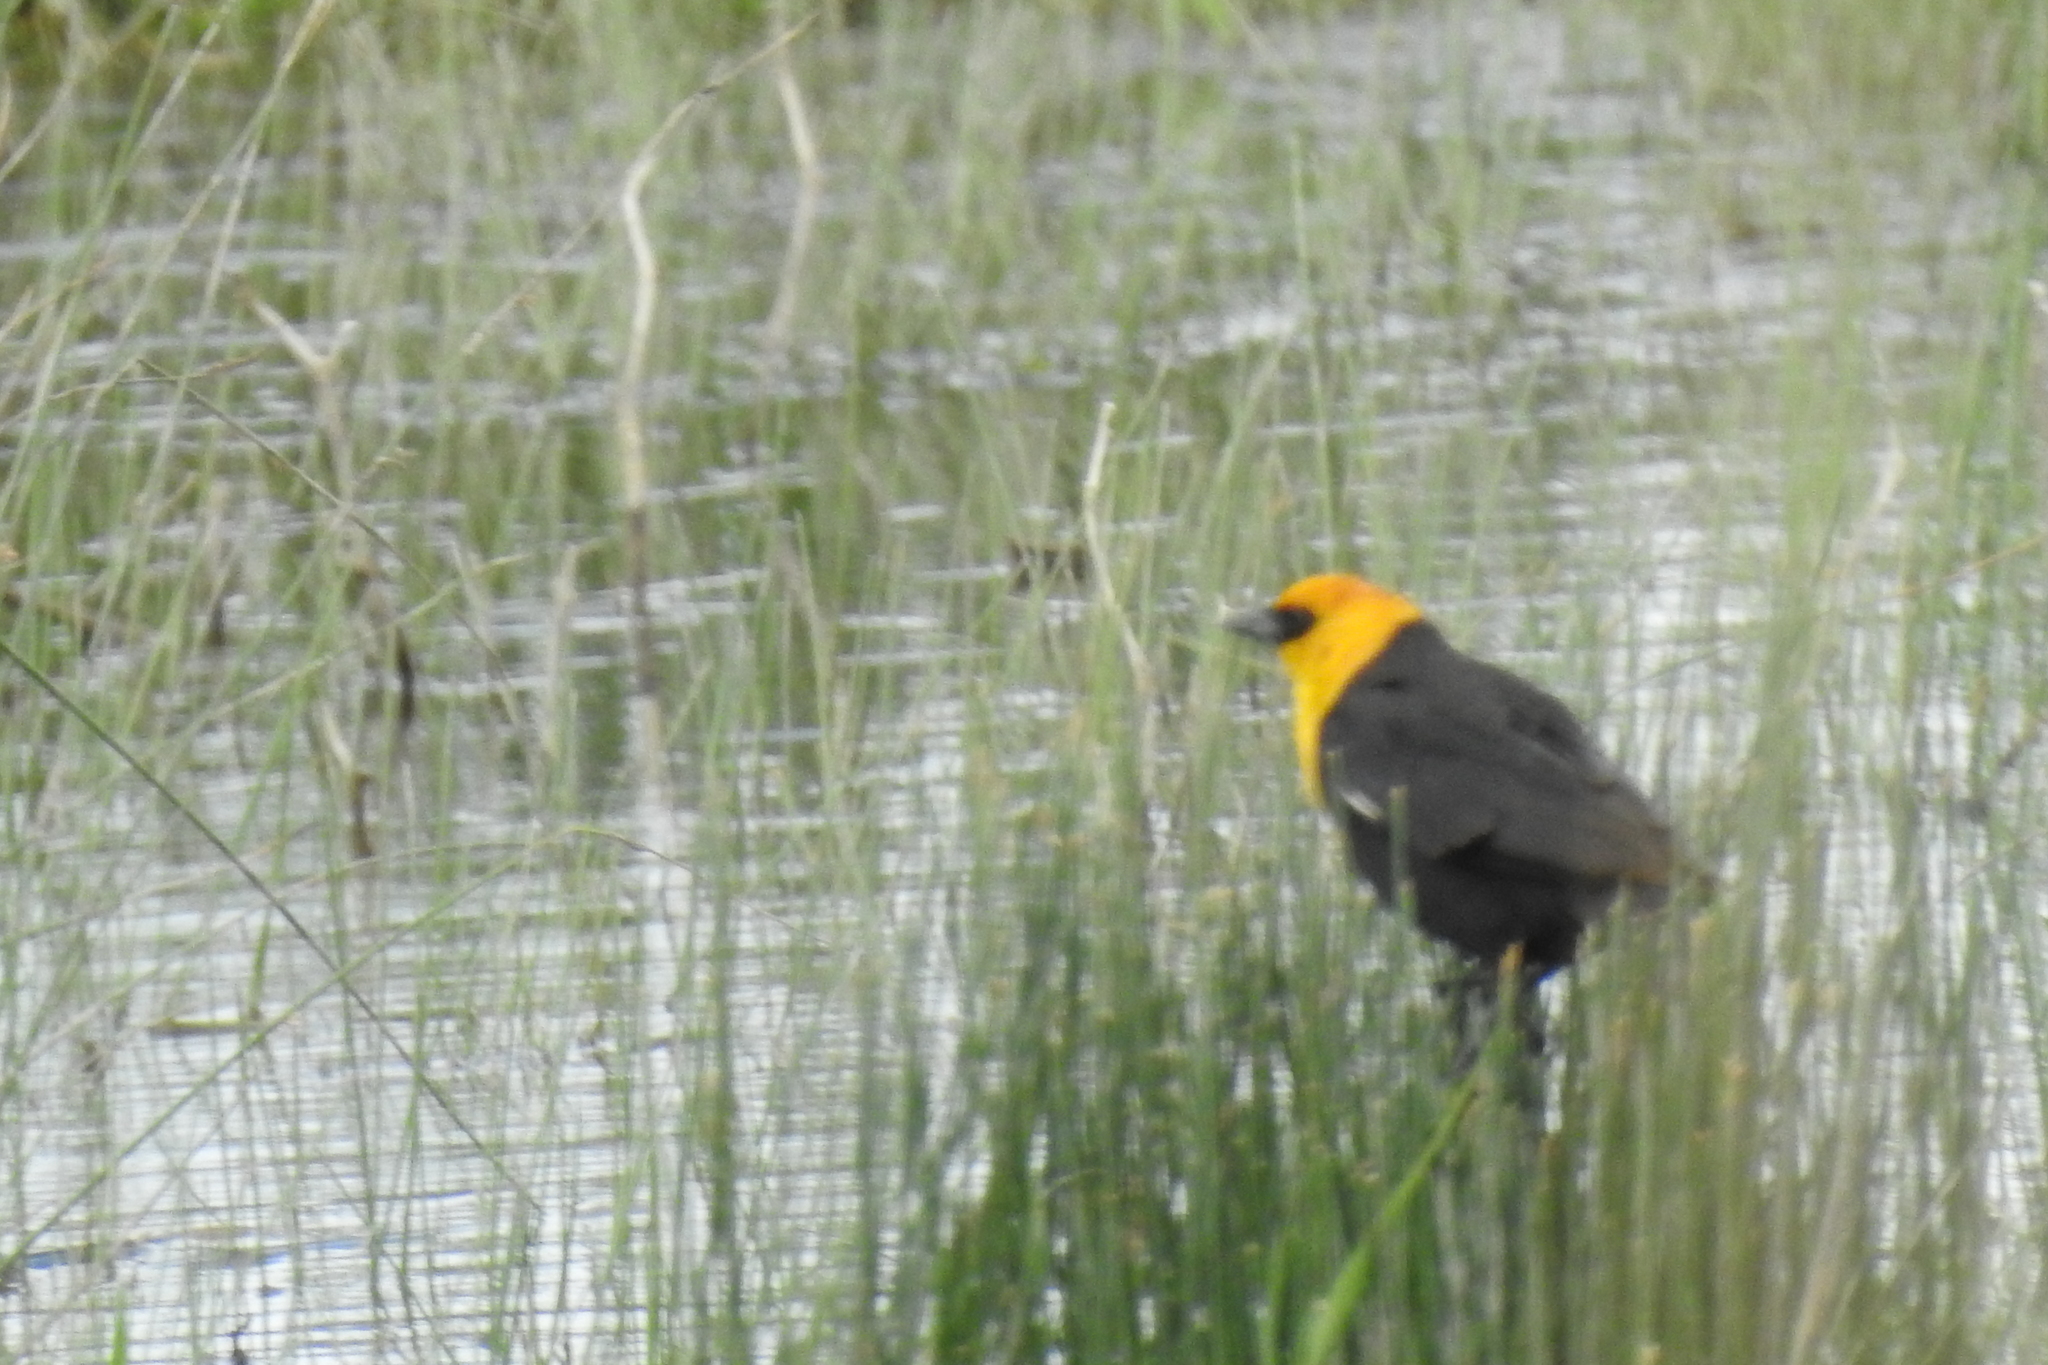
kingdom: Animalia
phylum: Chordata
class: Aves
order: Passeriformes
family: Icteridae
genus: Xanthocephalus
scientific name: Xanthocephalus xanthocephalus
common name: Yellow-headed blackbird
